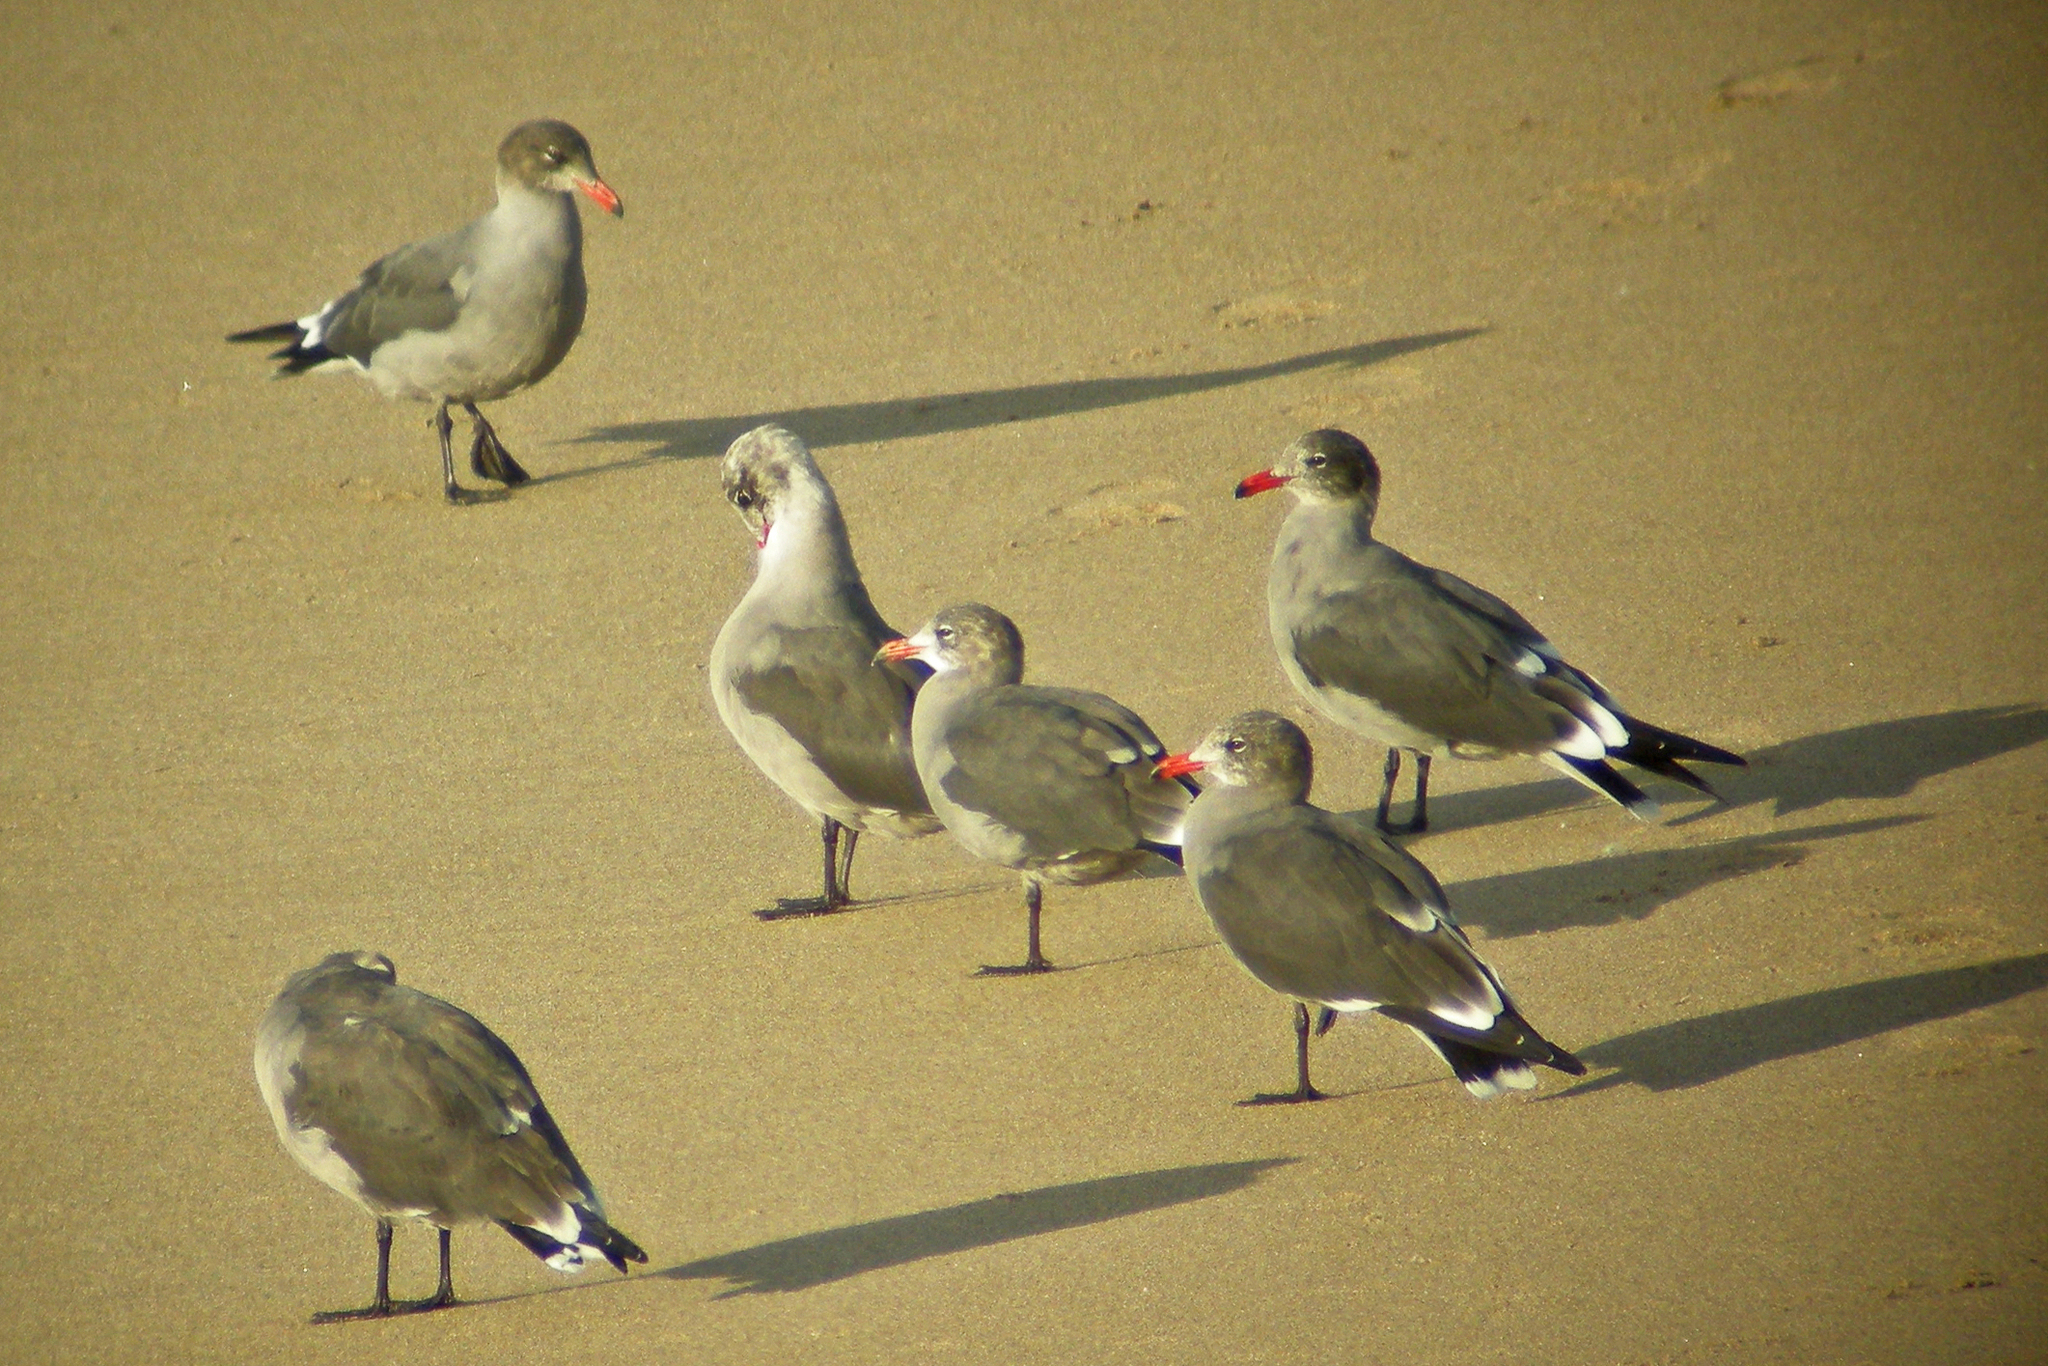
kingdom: Animalia
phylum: Chordata
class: Aves
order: Charadriiformes
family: Laridae
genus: Larus
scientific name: Larus heermanni
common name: Heermann's gull
